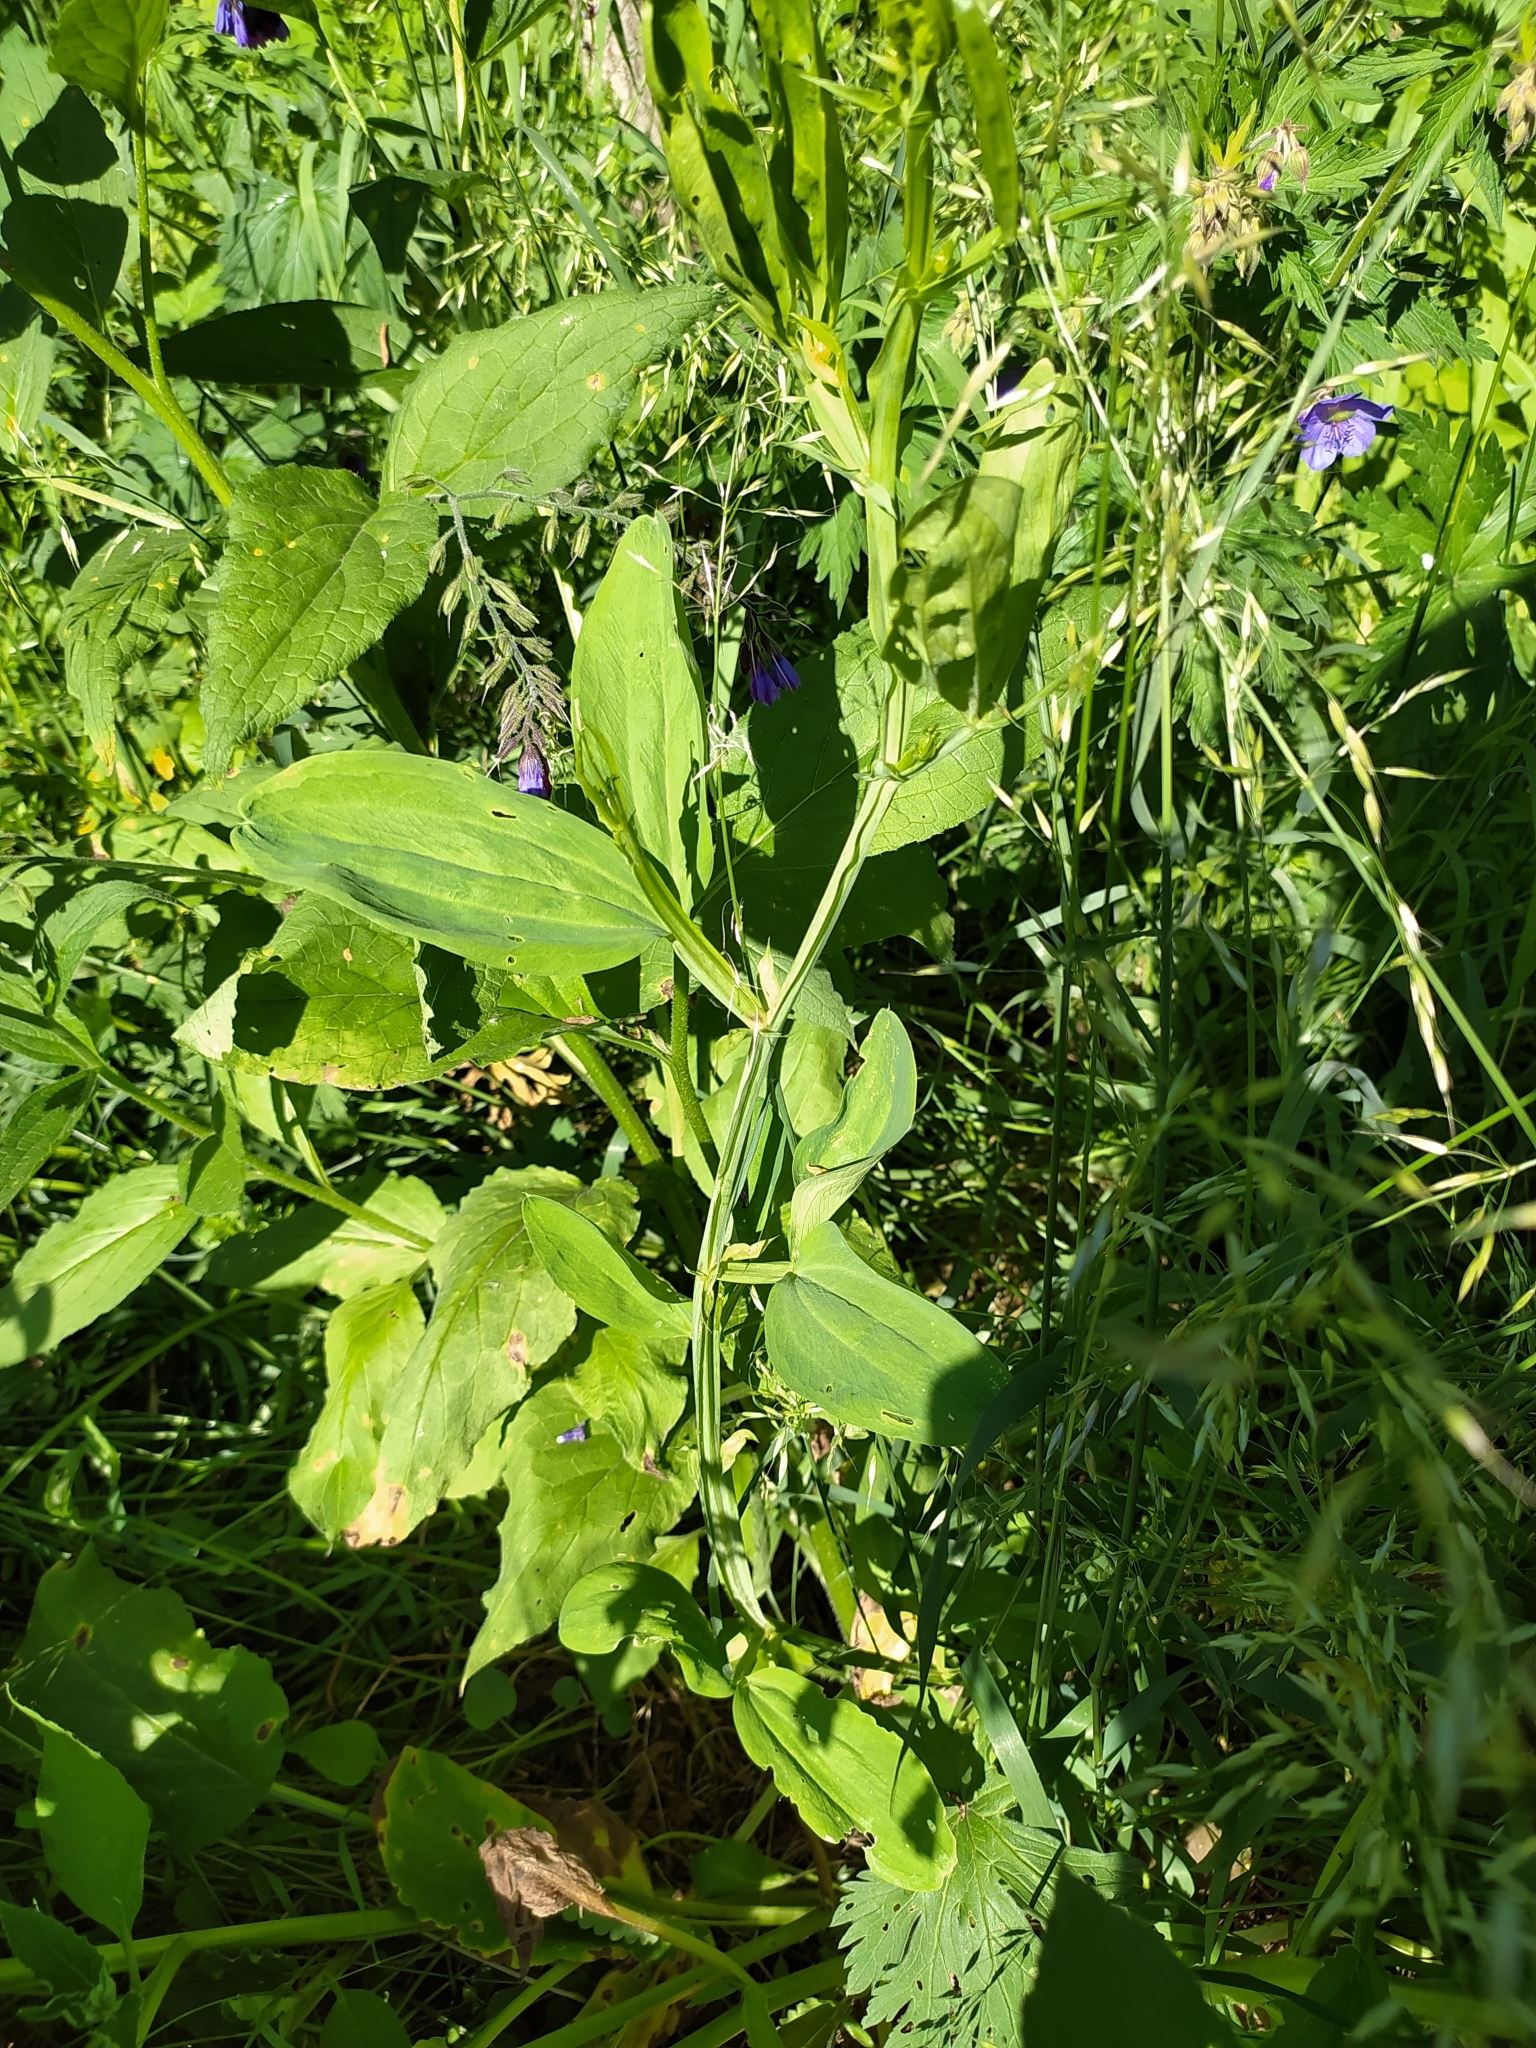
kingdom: Plantae
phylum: Tracheophyta
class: Magnoliopsida
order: Fabales
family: Fabaceae
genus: Lathyrus
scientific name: Lathyrus sylvestris
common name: Flat pea
